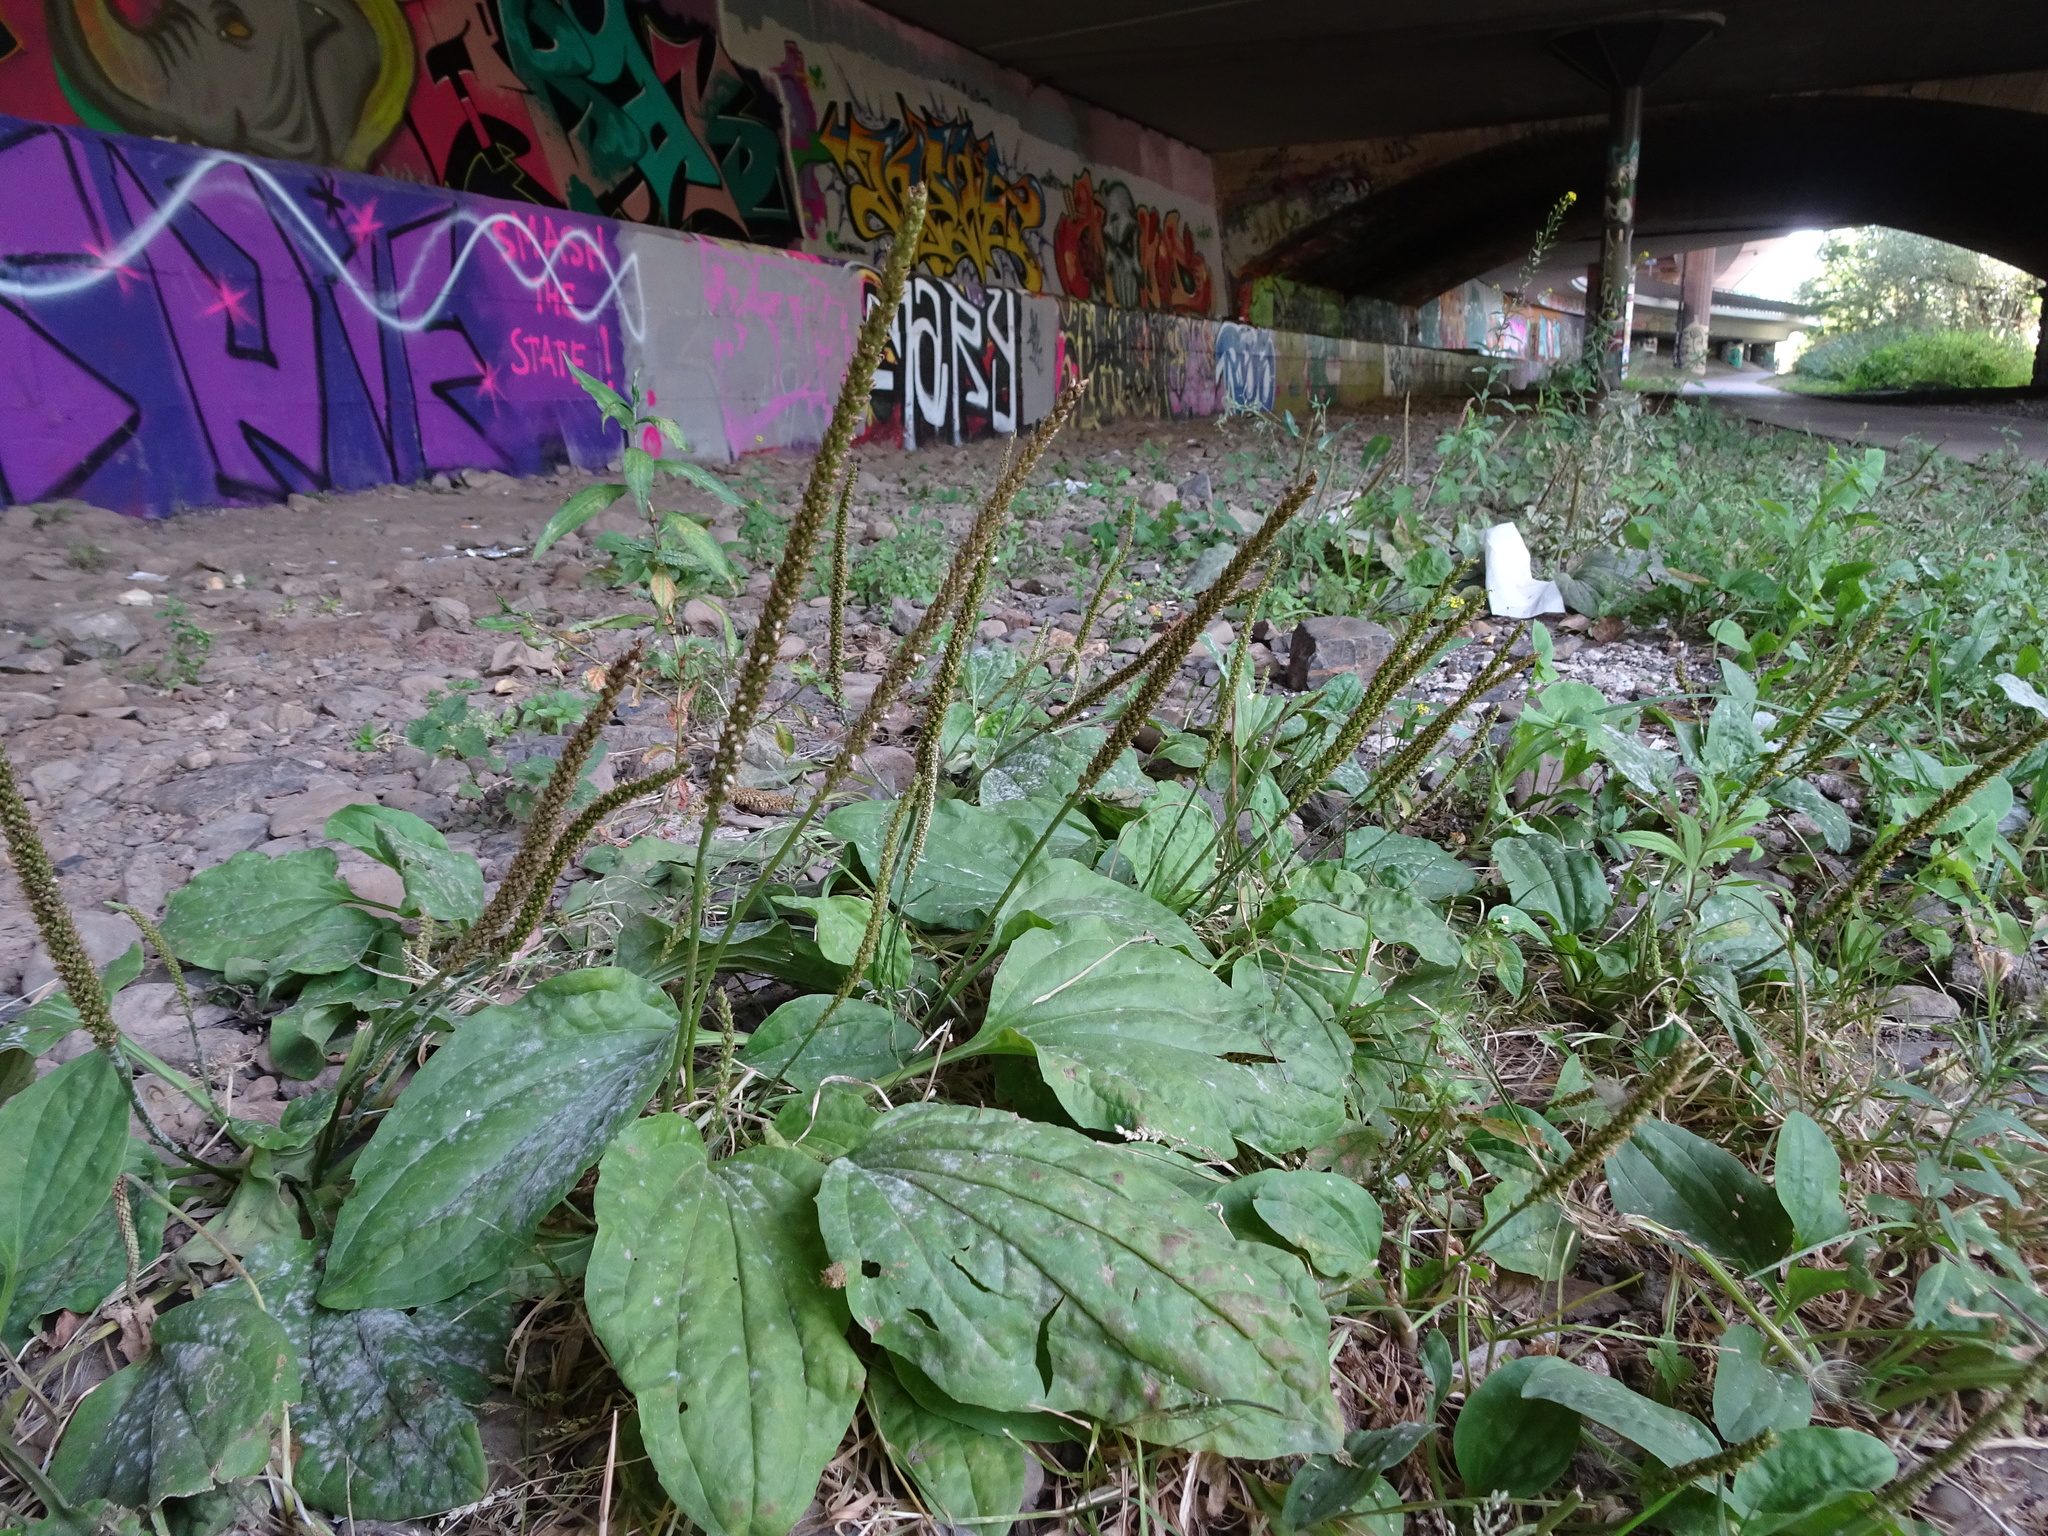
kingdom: Plantae
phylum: Tracheophyta
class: Magnoliopsida
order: Lamiales
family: Plantaginaceae
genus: Plantago
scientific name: Plantago major
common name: Common plantain
